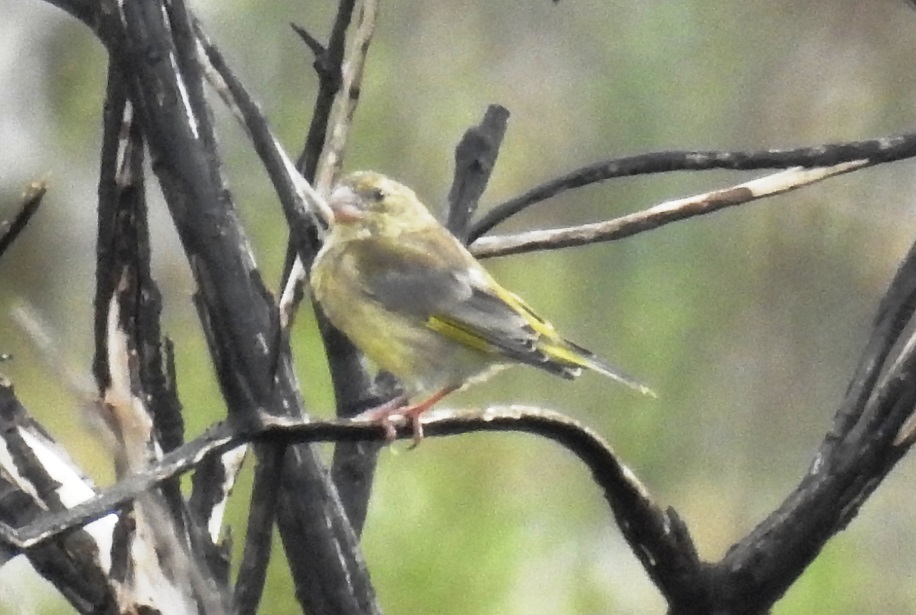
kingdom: Plantae
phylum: Tracheophyta
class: Liliopsida
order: Poales
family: Poaceae
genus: Chloris
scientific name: Chloris chloris
